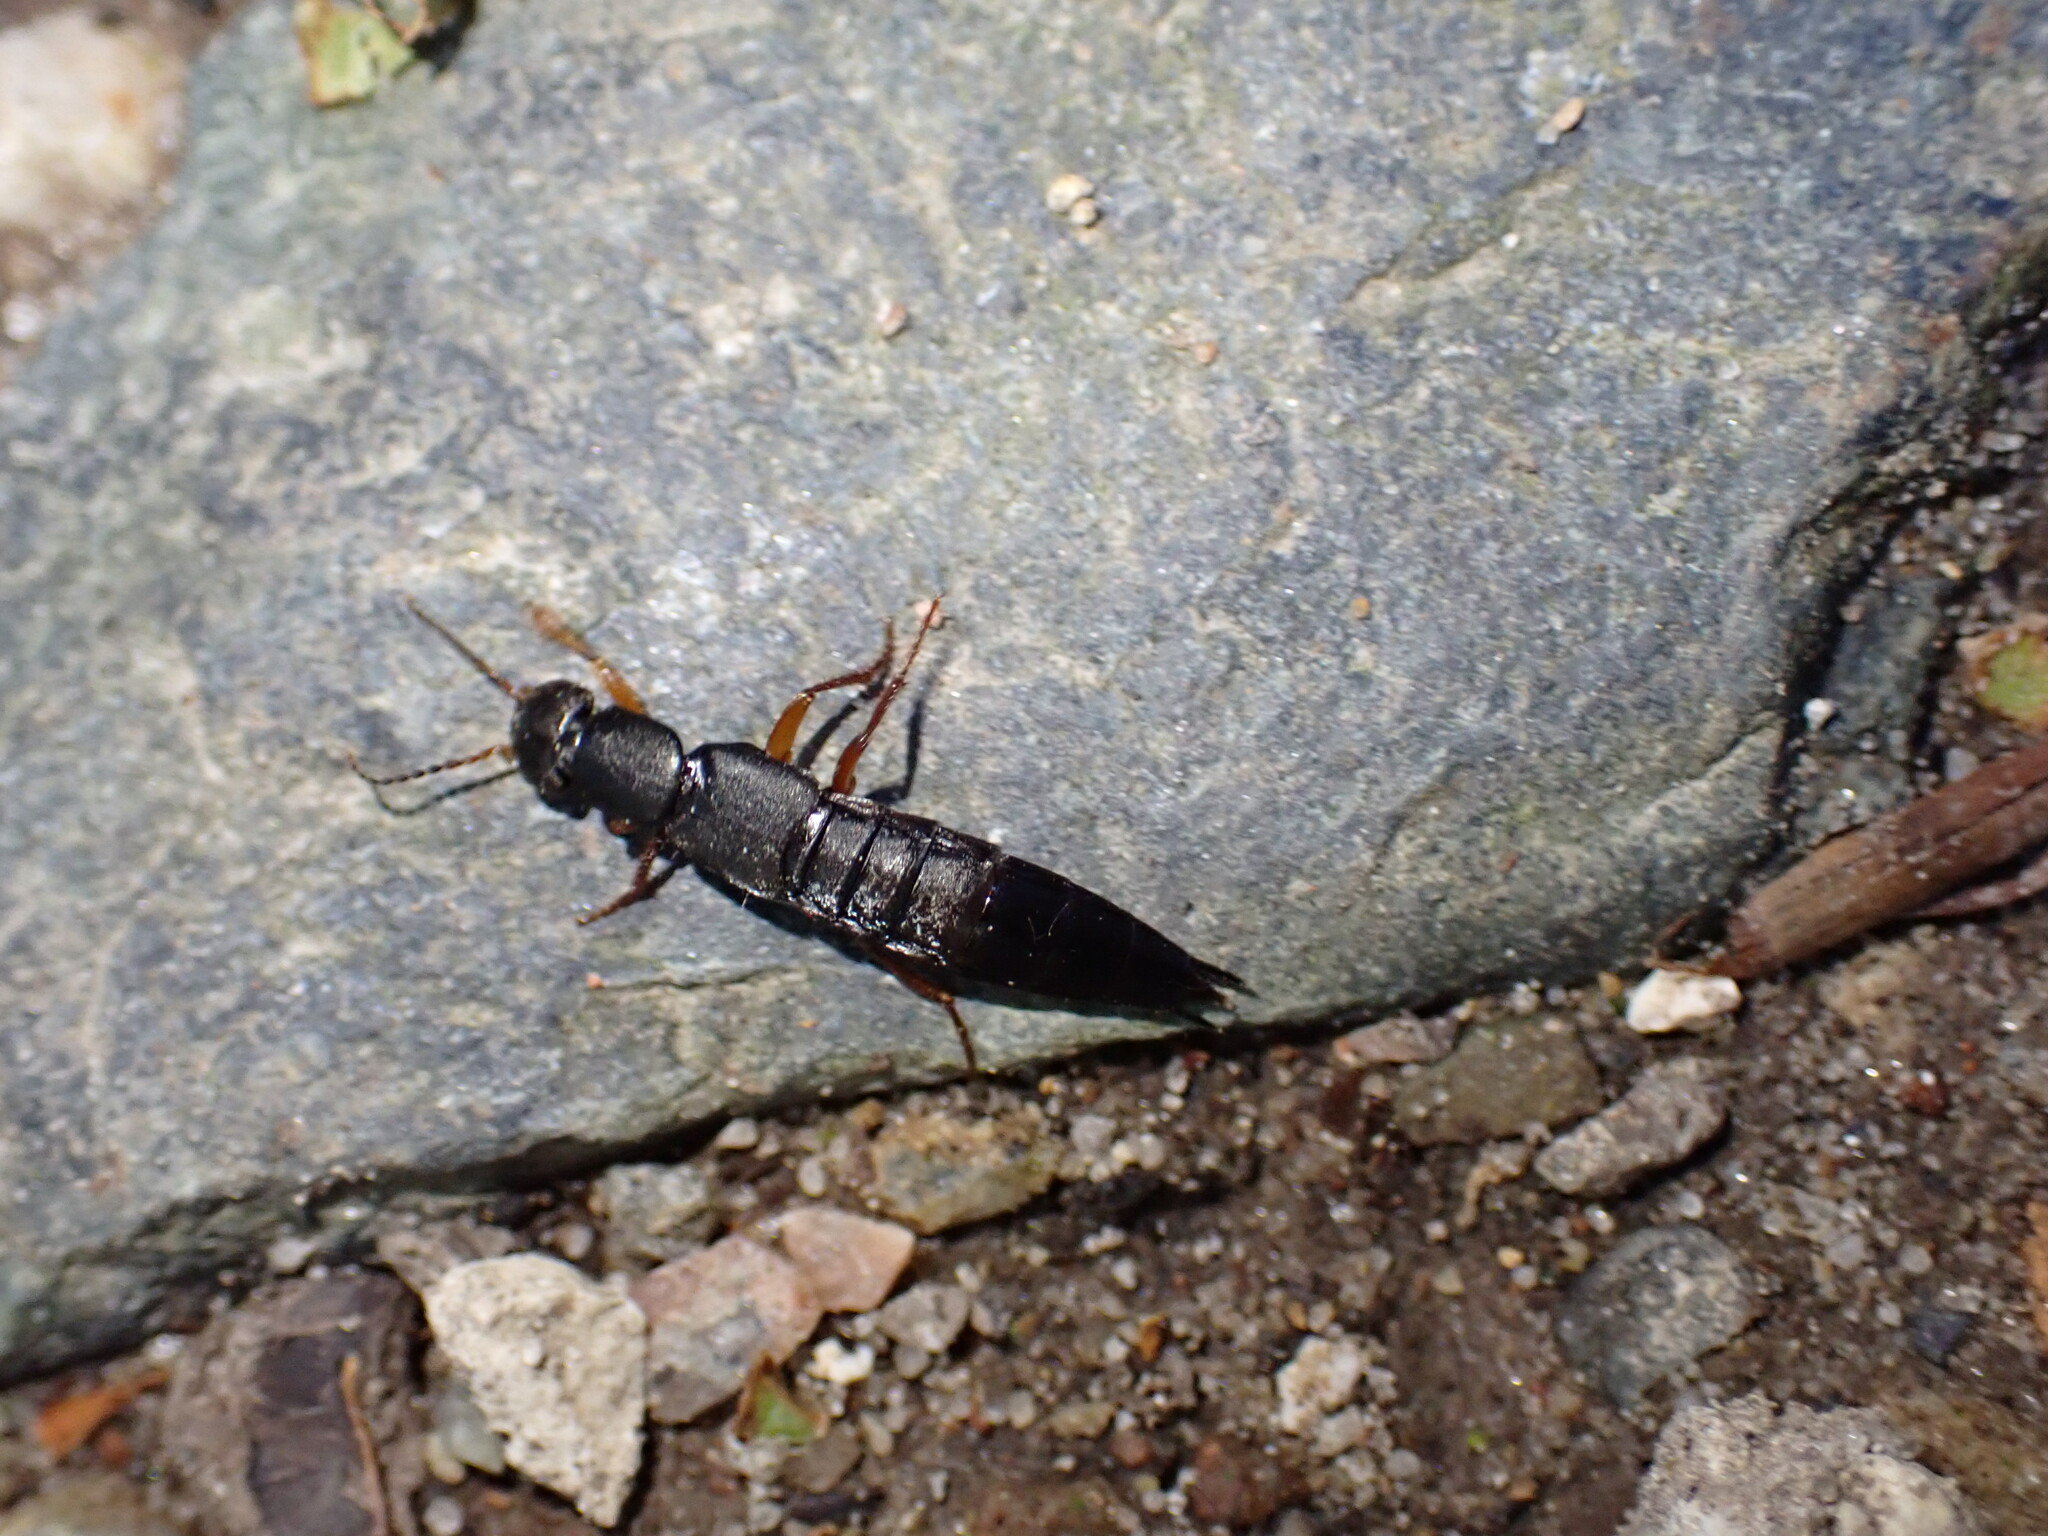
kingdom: Animalia
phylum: Arthropoda
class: Insecta
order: Coleoptera
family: Staphylinidae
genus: Tasgius
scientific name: Tasgius morsitans
